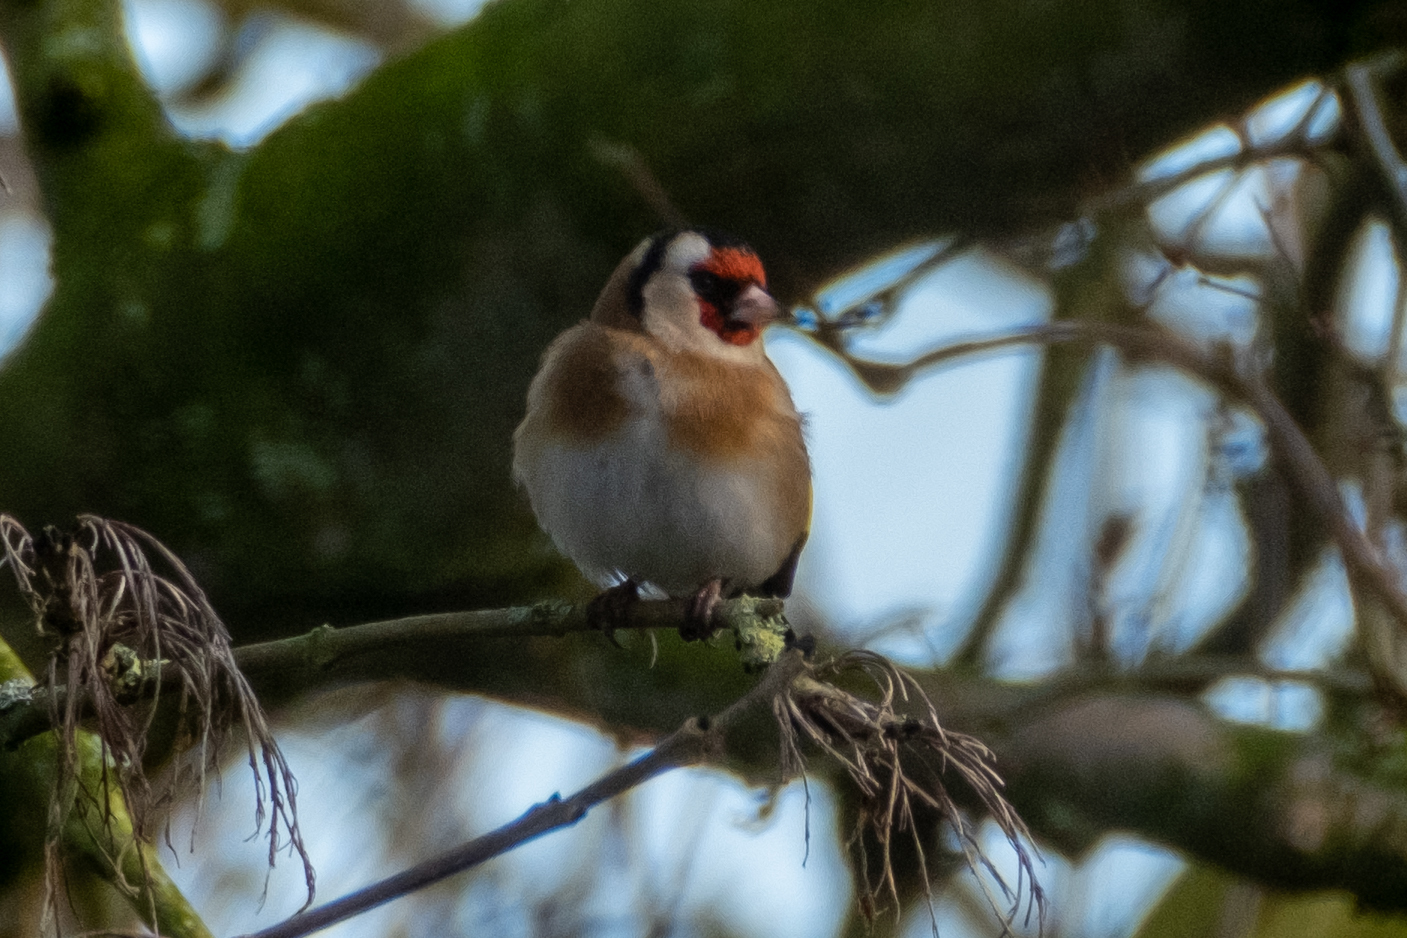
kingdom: Animalia
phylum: Chordata
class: Aves
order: Passeriformes
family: Fringillidae
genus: Carduelis
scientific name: Carduelis carduelis
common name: European goldfinch
